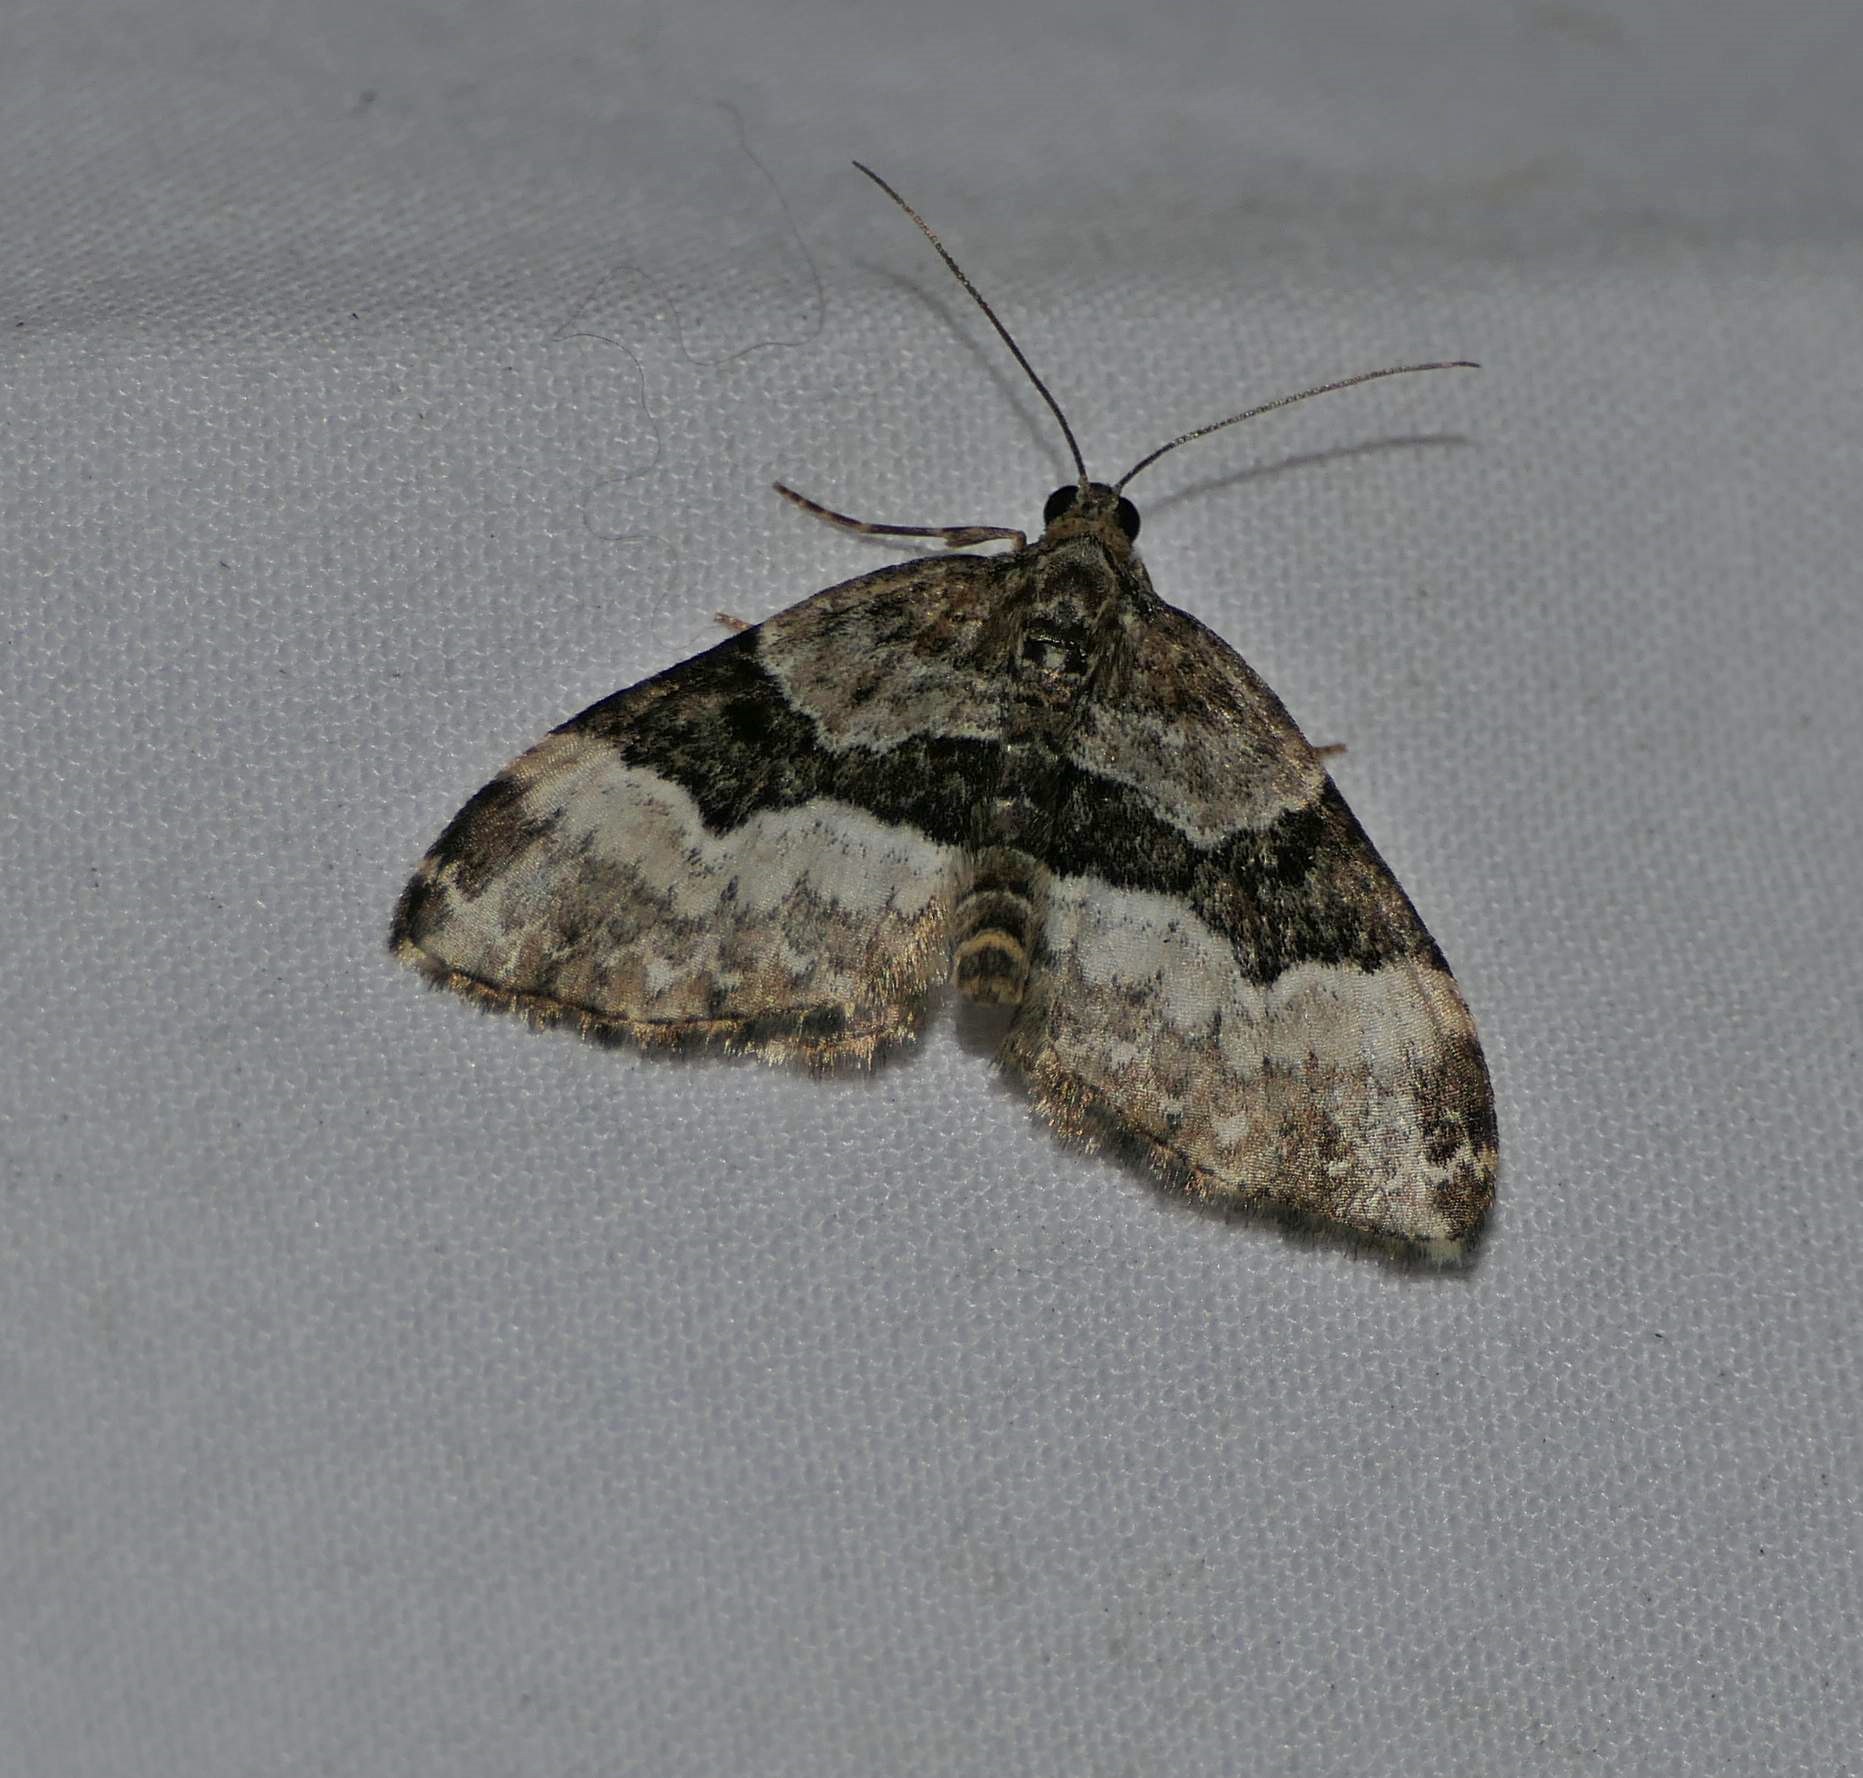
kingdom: Animalia
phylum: Arthropoda
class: Insecta
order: Lepidoptera
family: Geometridae
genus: Xanthorhoe
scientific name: Xanthorhoe lacustrata
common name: Toothed brown carpet
